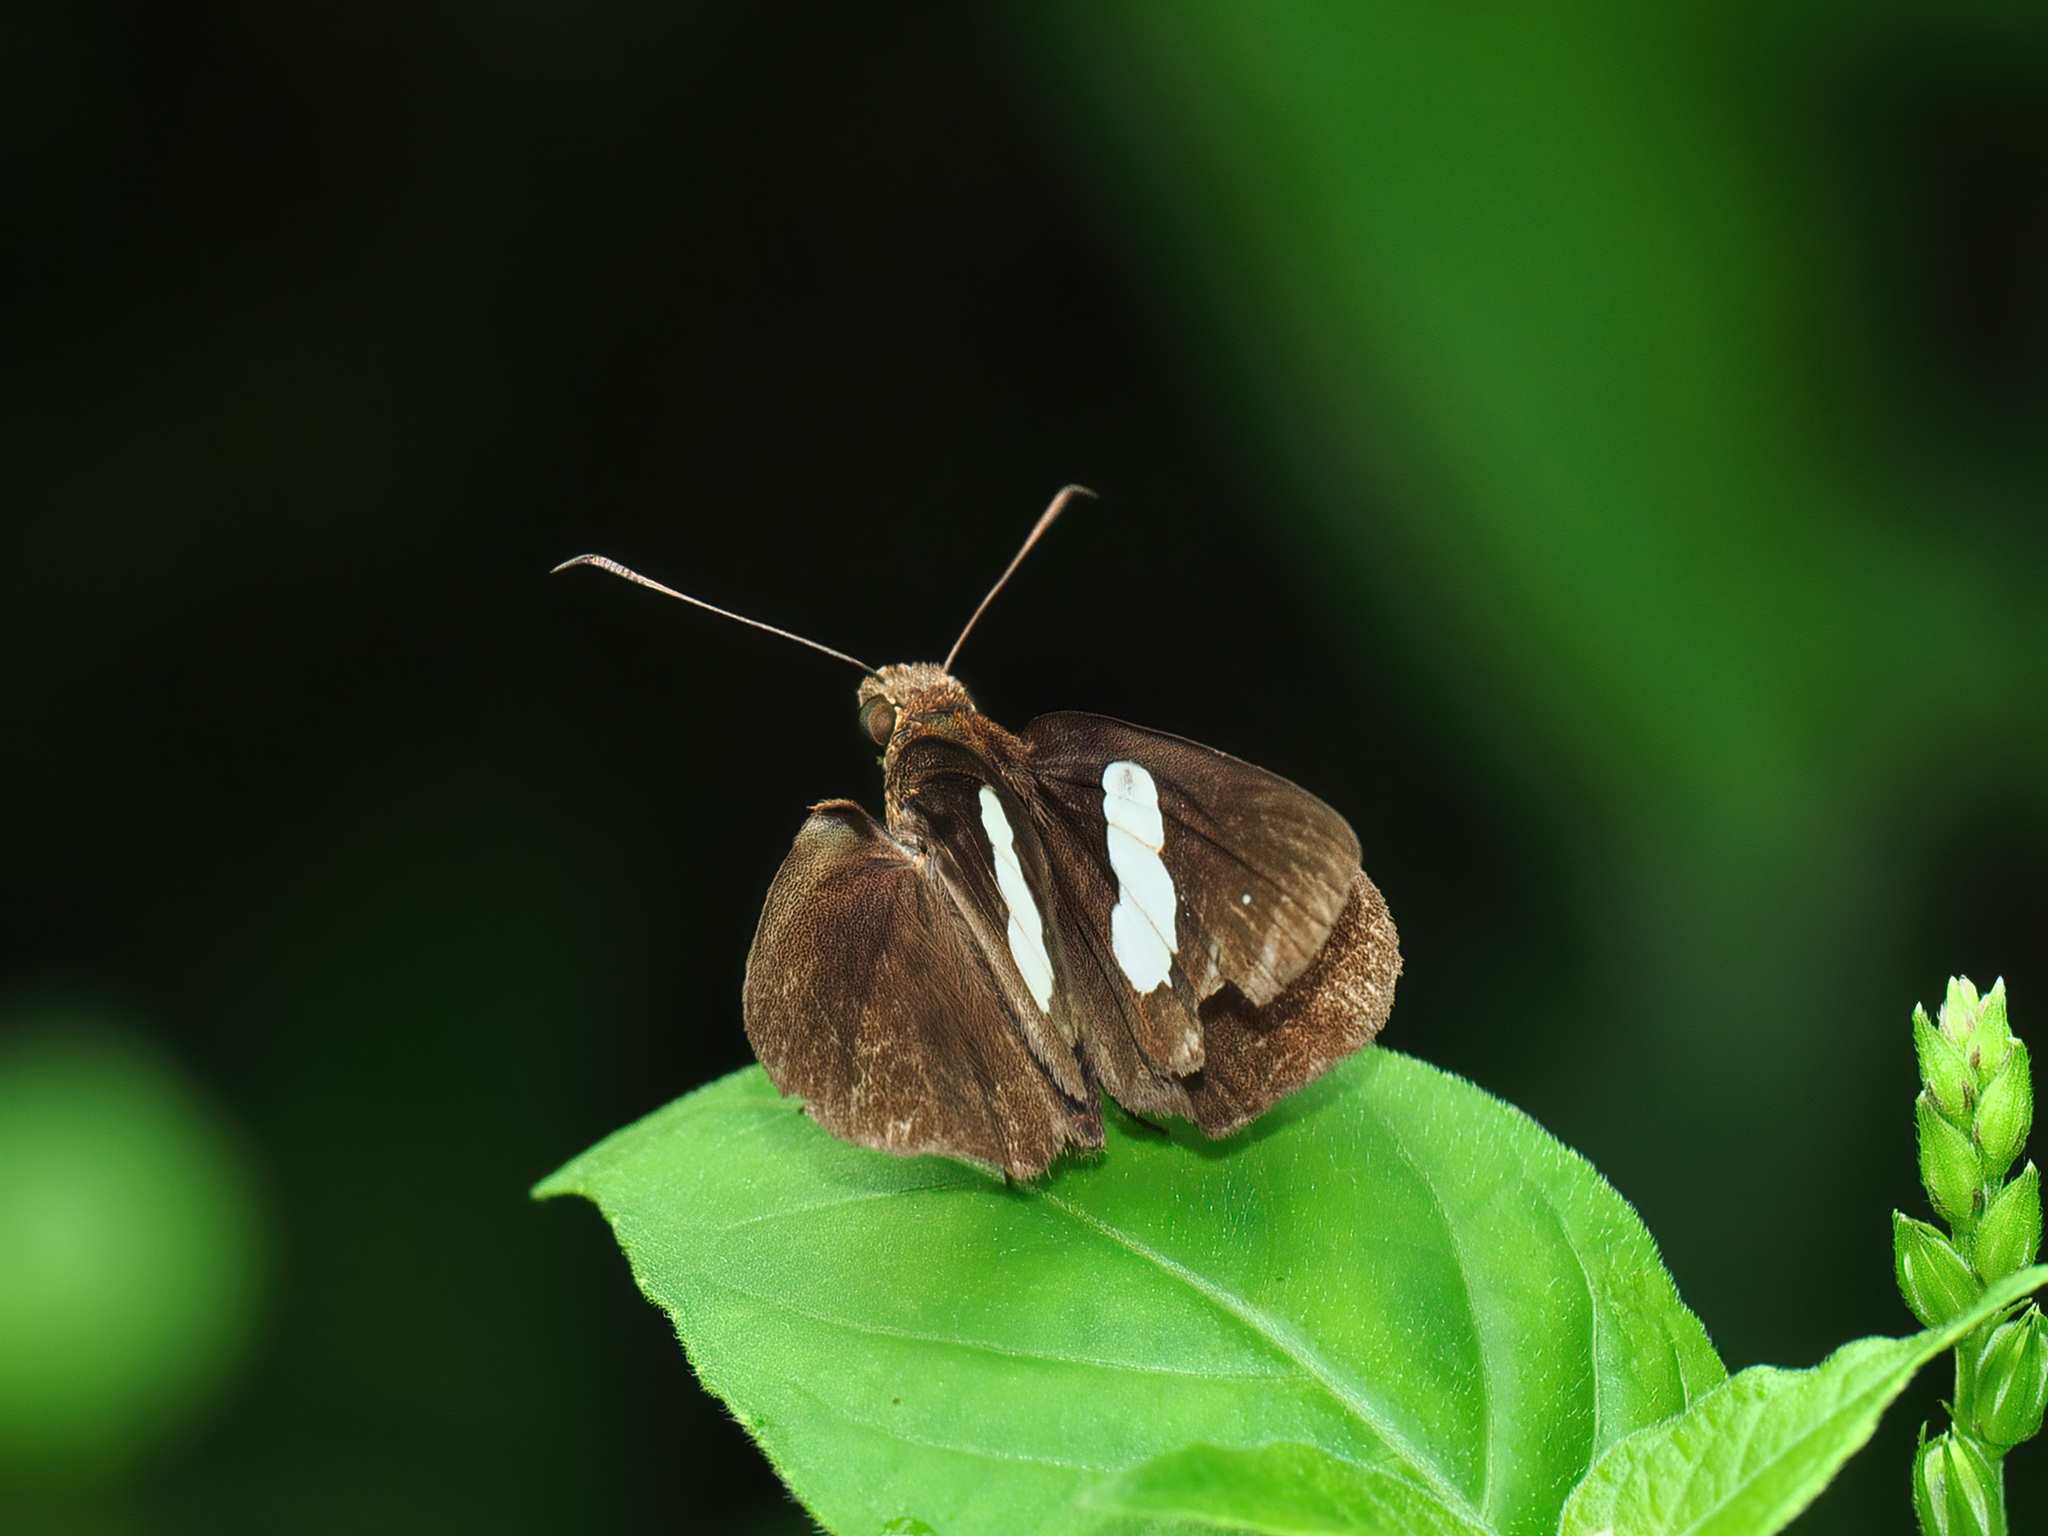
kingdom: Animalia
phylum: Arthropoda
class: Insecta
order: Lepidoptera
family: Hesperiidae
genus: Notocrypta
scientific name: Notocrypta paralysos
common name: Common banded demon
